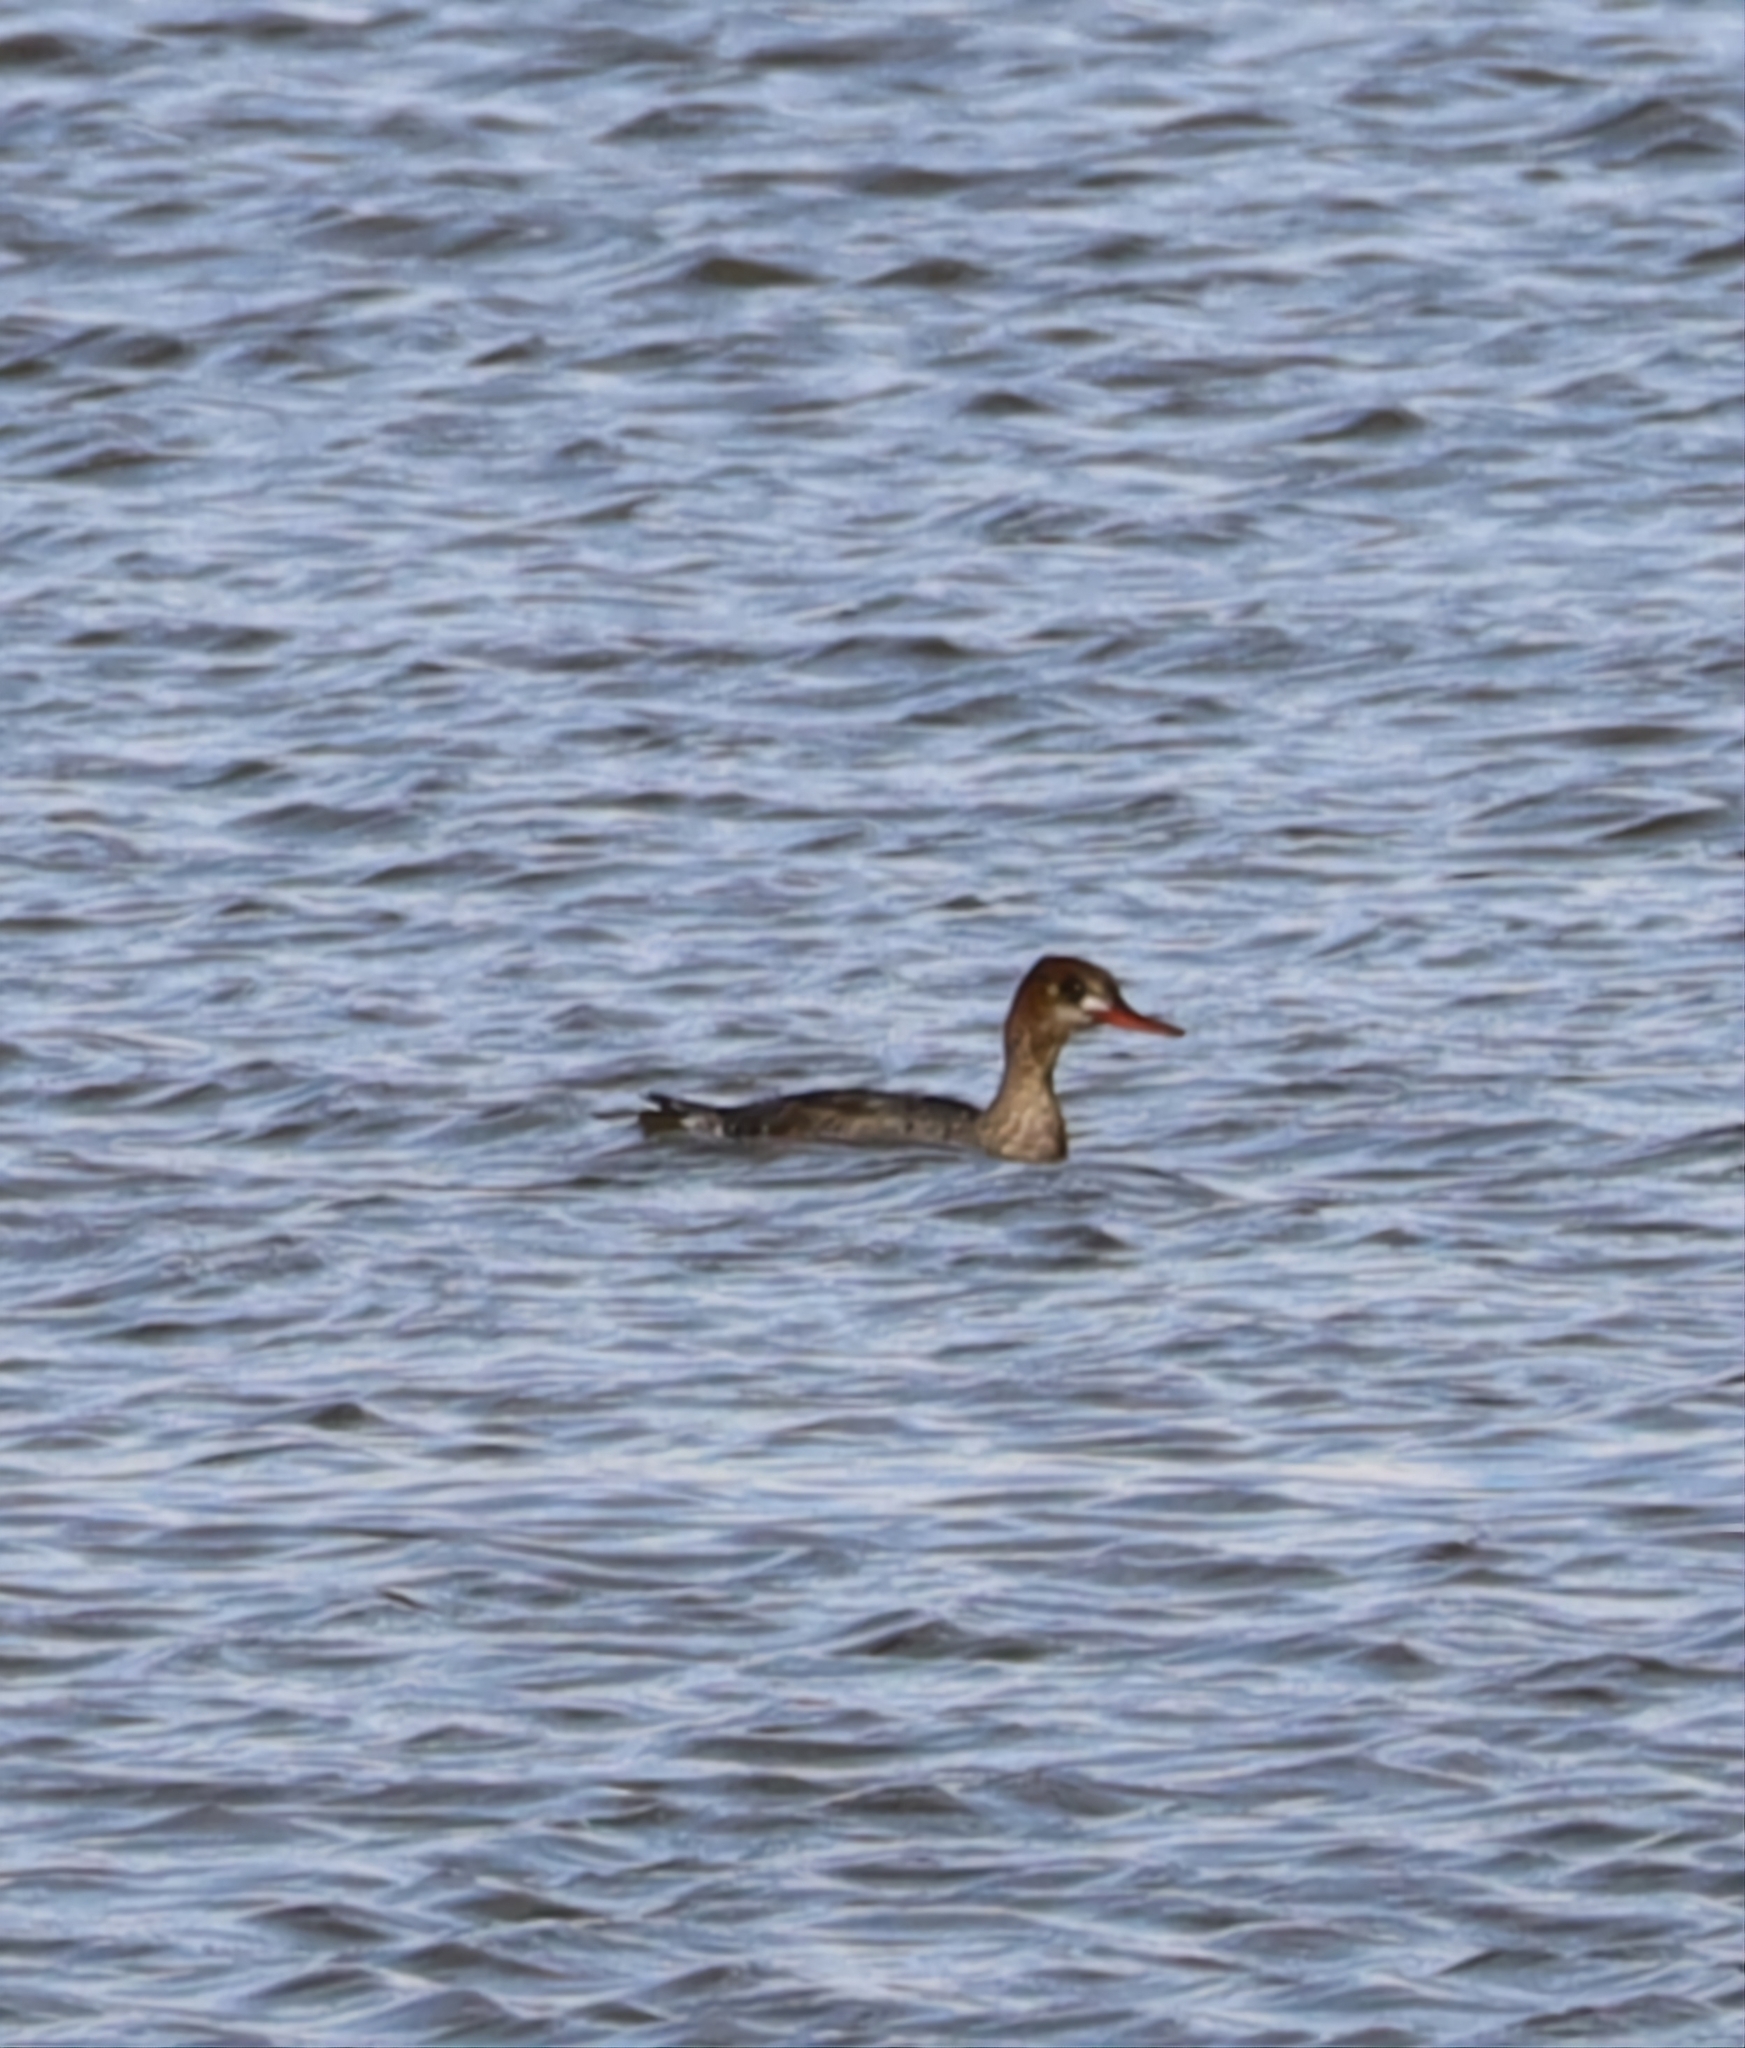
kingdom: Animalia
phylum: Chordata
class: Aves
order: Anseriformes
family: Anatidae
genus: Mergus
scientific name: Mergus serrator
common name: Red-breasted merganser
